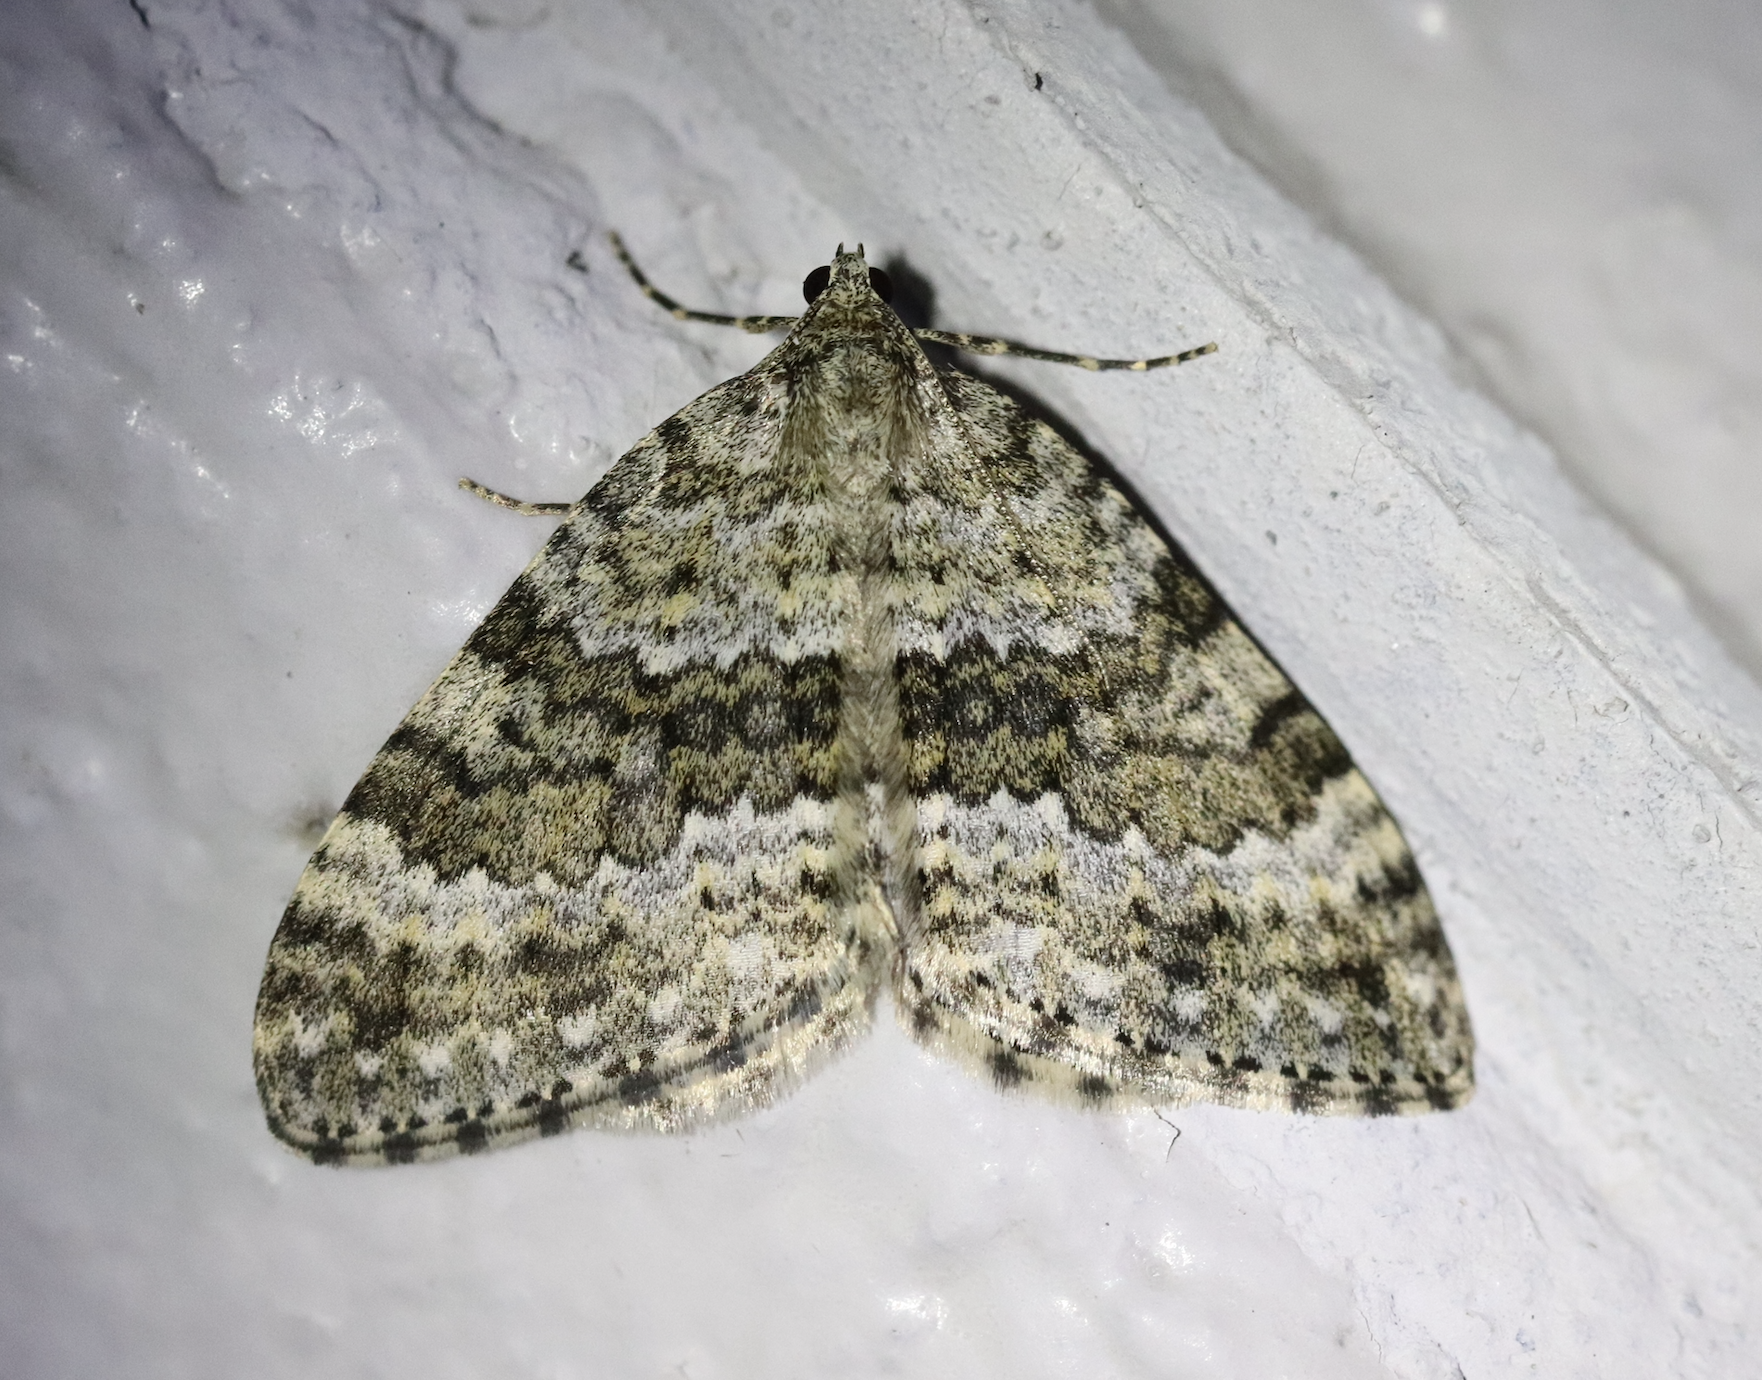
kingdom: Animalia
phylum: Arthropoda
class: Insecta
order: Lepidoptera
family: Geometridae
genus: Entephria
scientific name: Entephria caesiata
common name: Grey mountain moth
